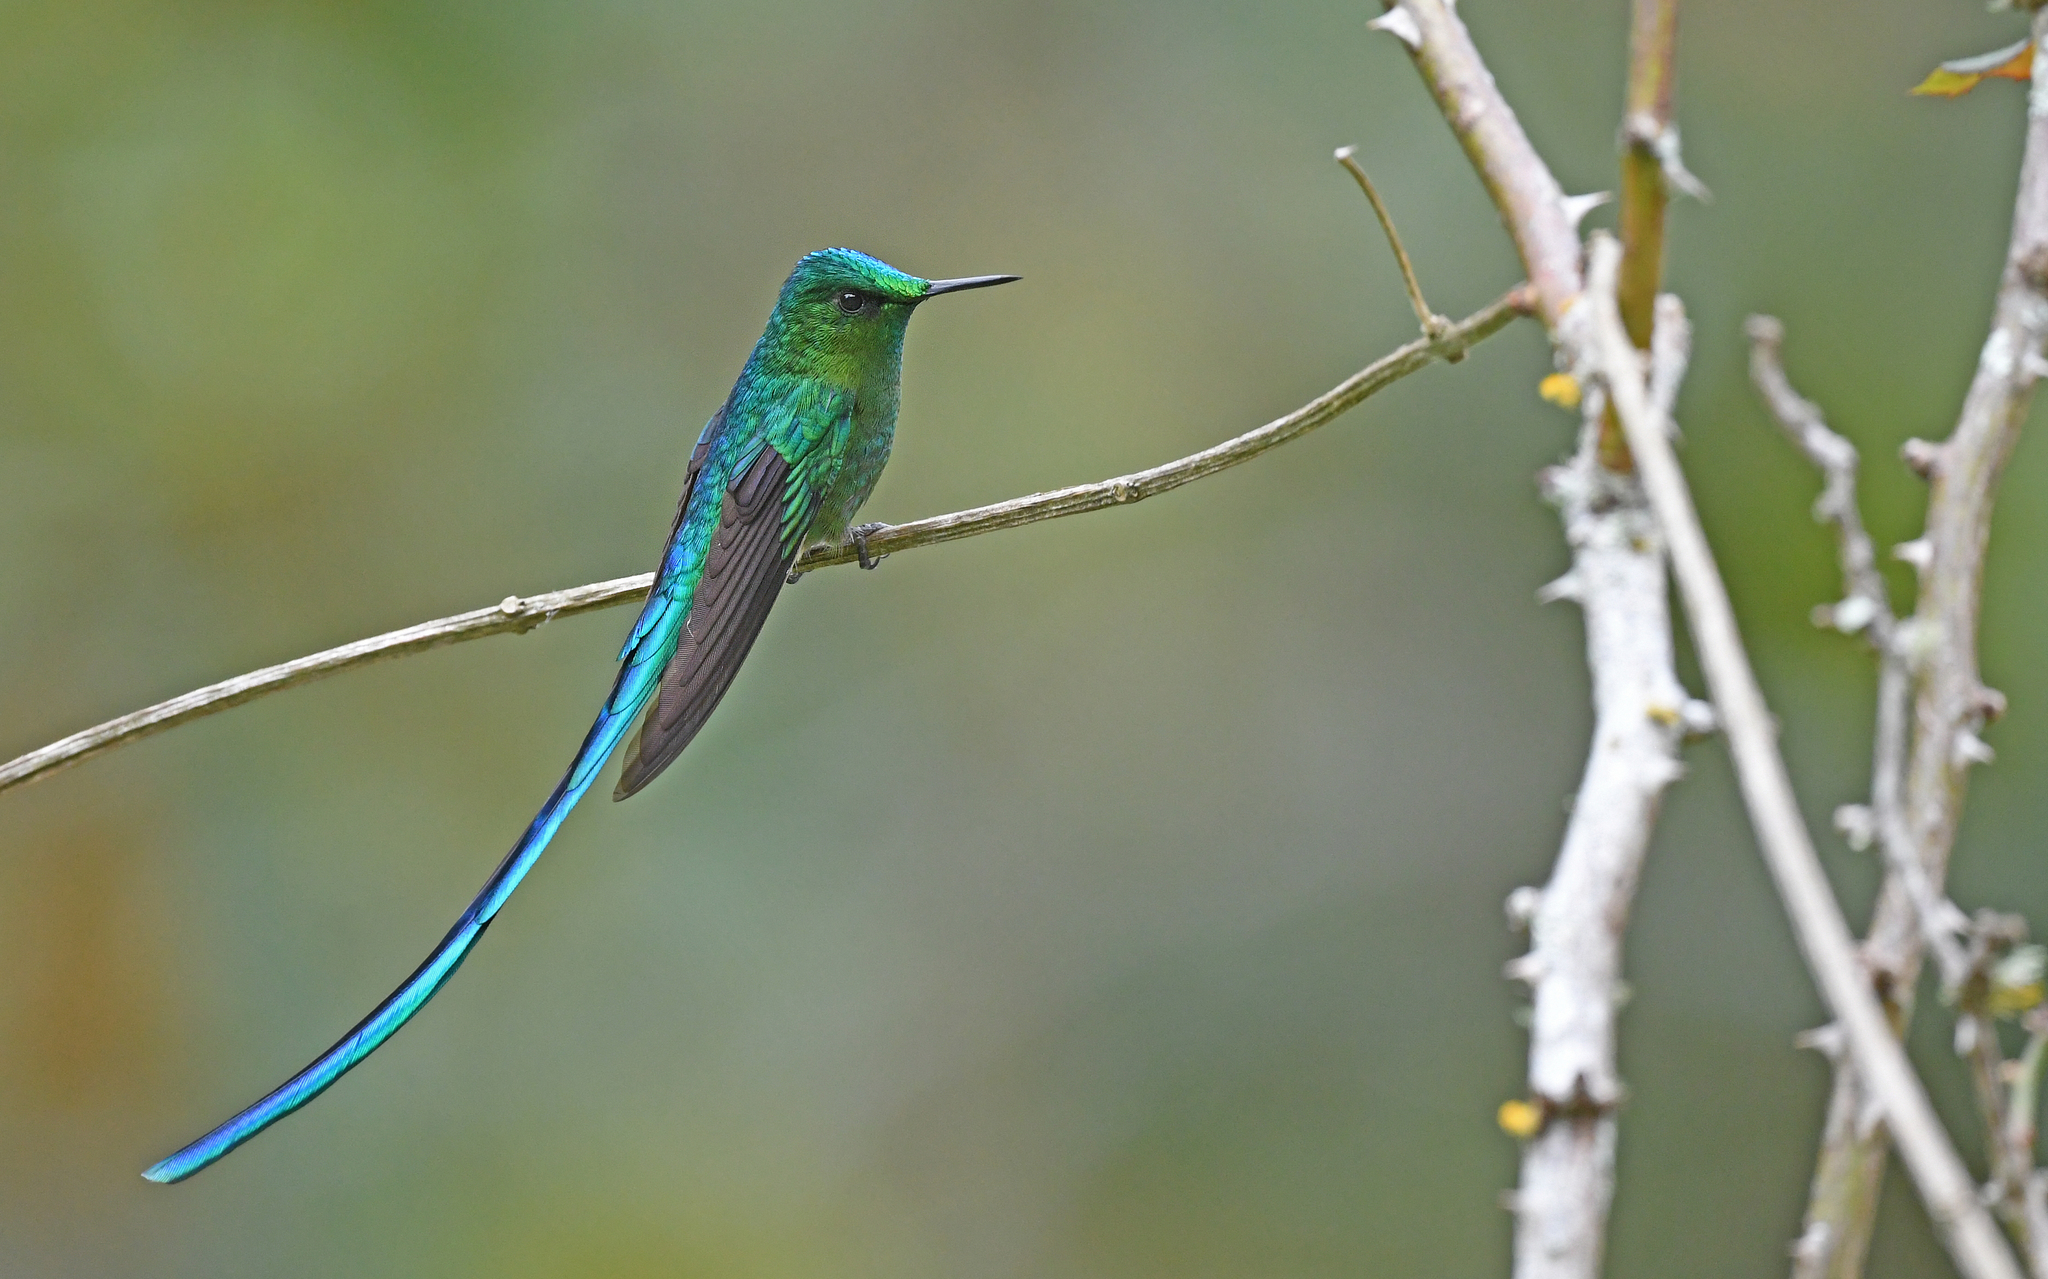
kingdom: Animalia
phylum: Chordata
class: Aves
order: Apodiformes
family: Trochilidae
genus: Aglaiocercus
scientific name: Aglaiocercus kingii
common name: Long-tailed sylph
